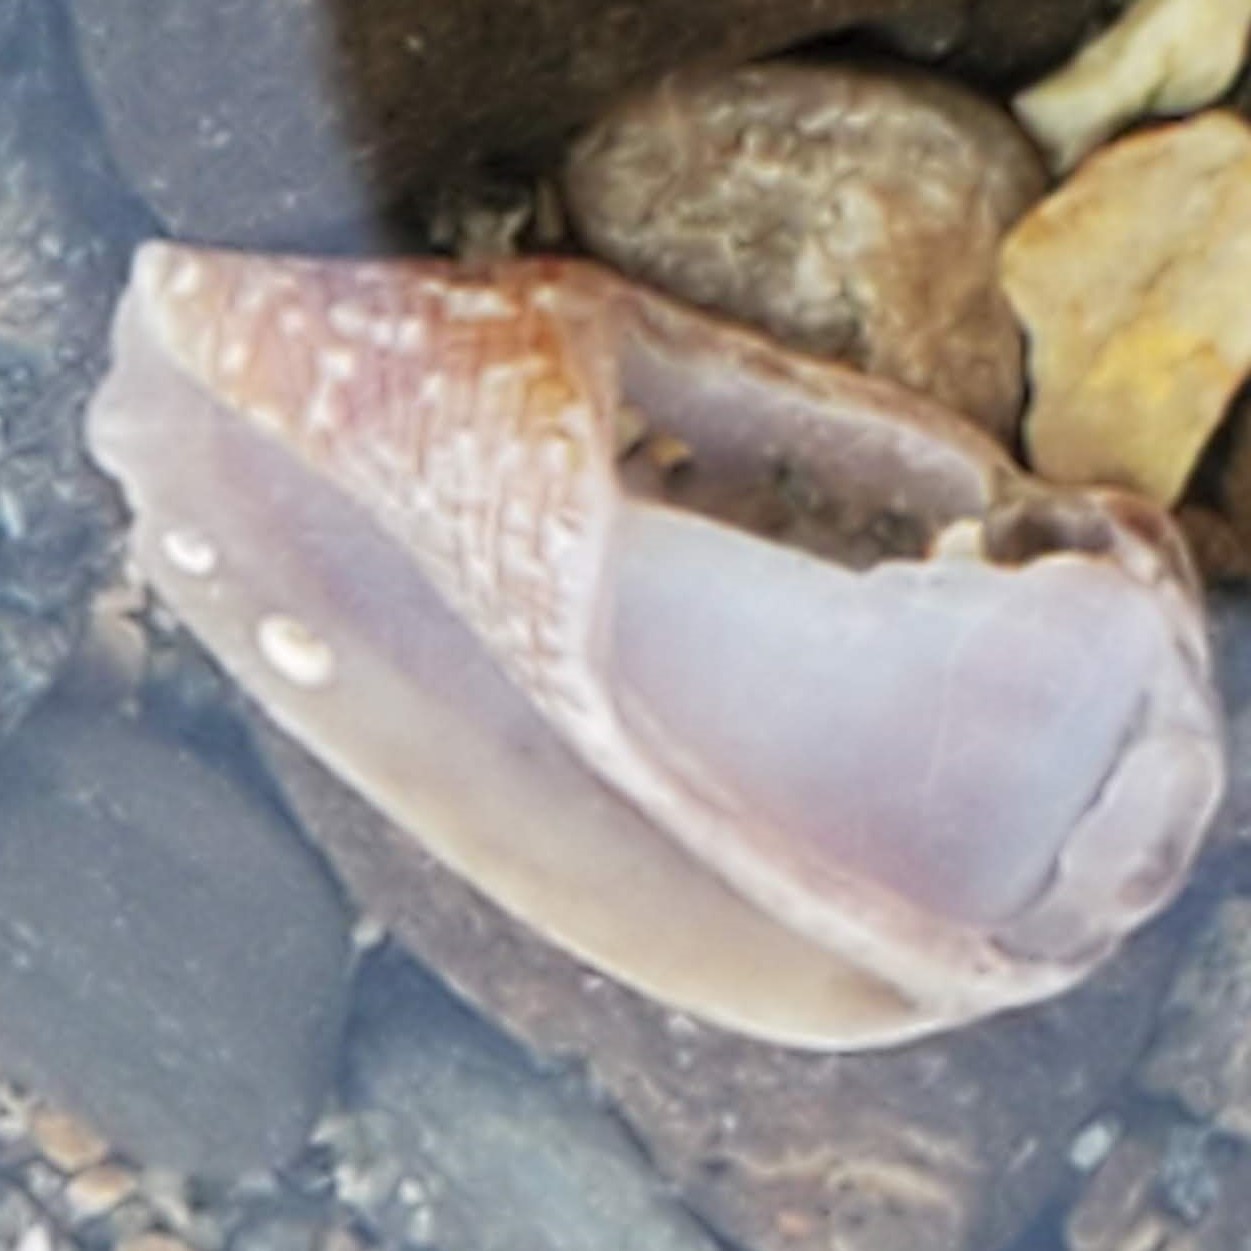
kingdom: Animalia
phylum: Mollusca
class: Gastropoda
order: Neogastropoda
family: Conidae
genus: Californiconus
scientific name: Californiconus californicus
